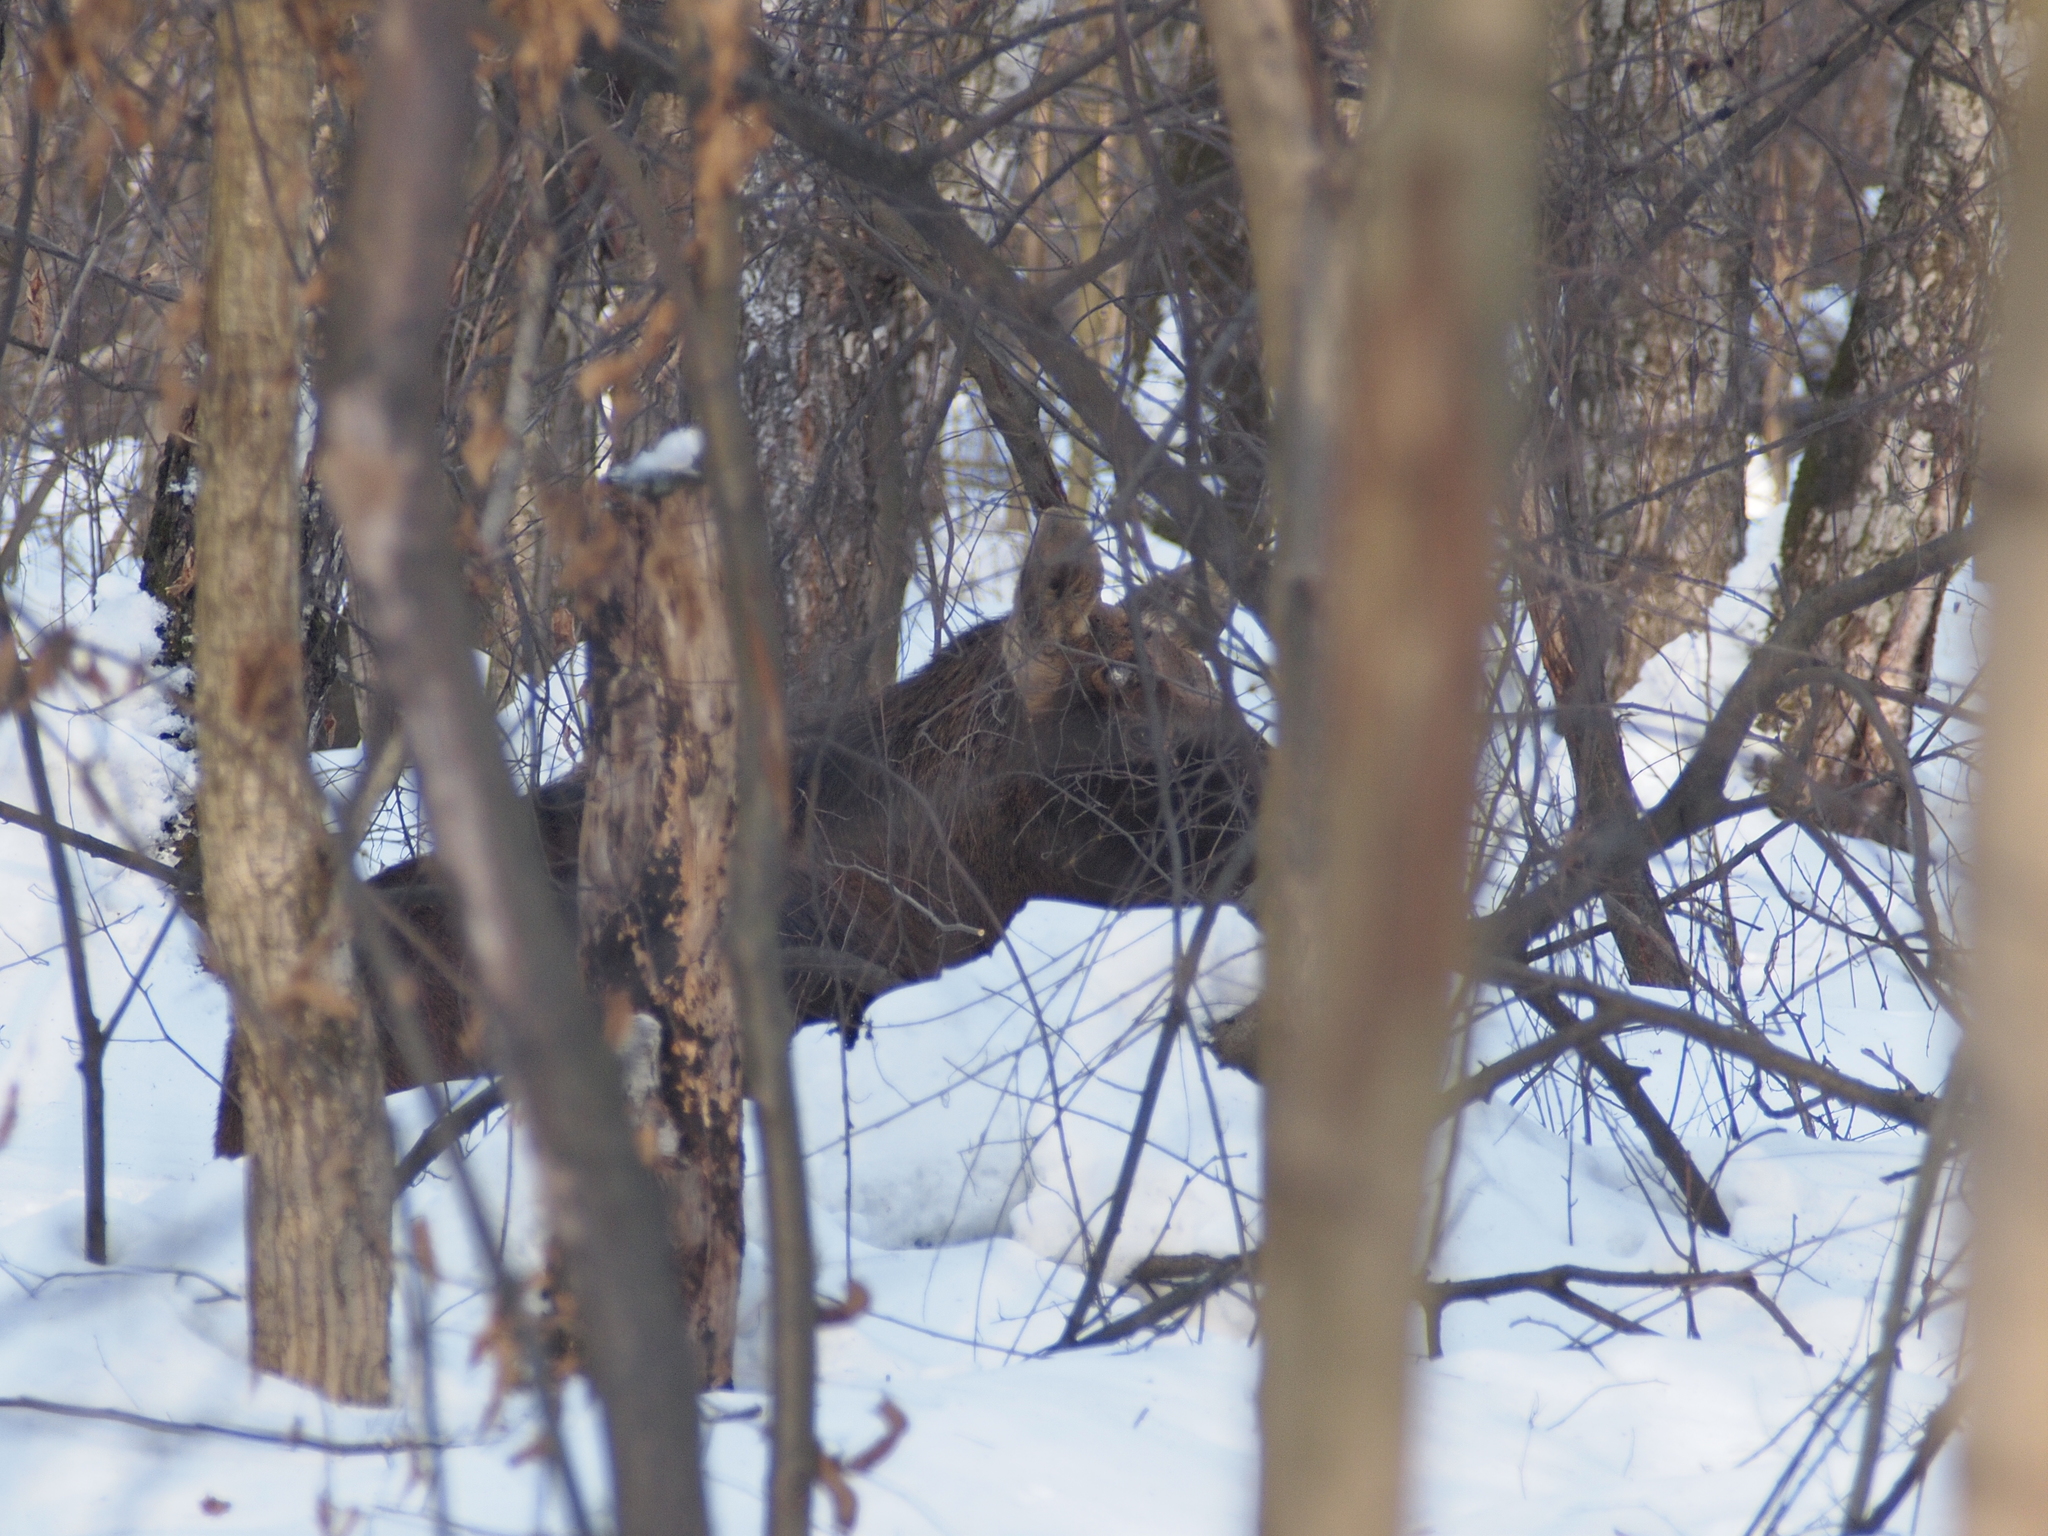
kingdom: Animalia
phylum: Chordata
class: Mammalia
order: Artiodactyla
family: Cervidae
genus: Alces
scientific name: Alces alces
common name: Moose
